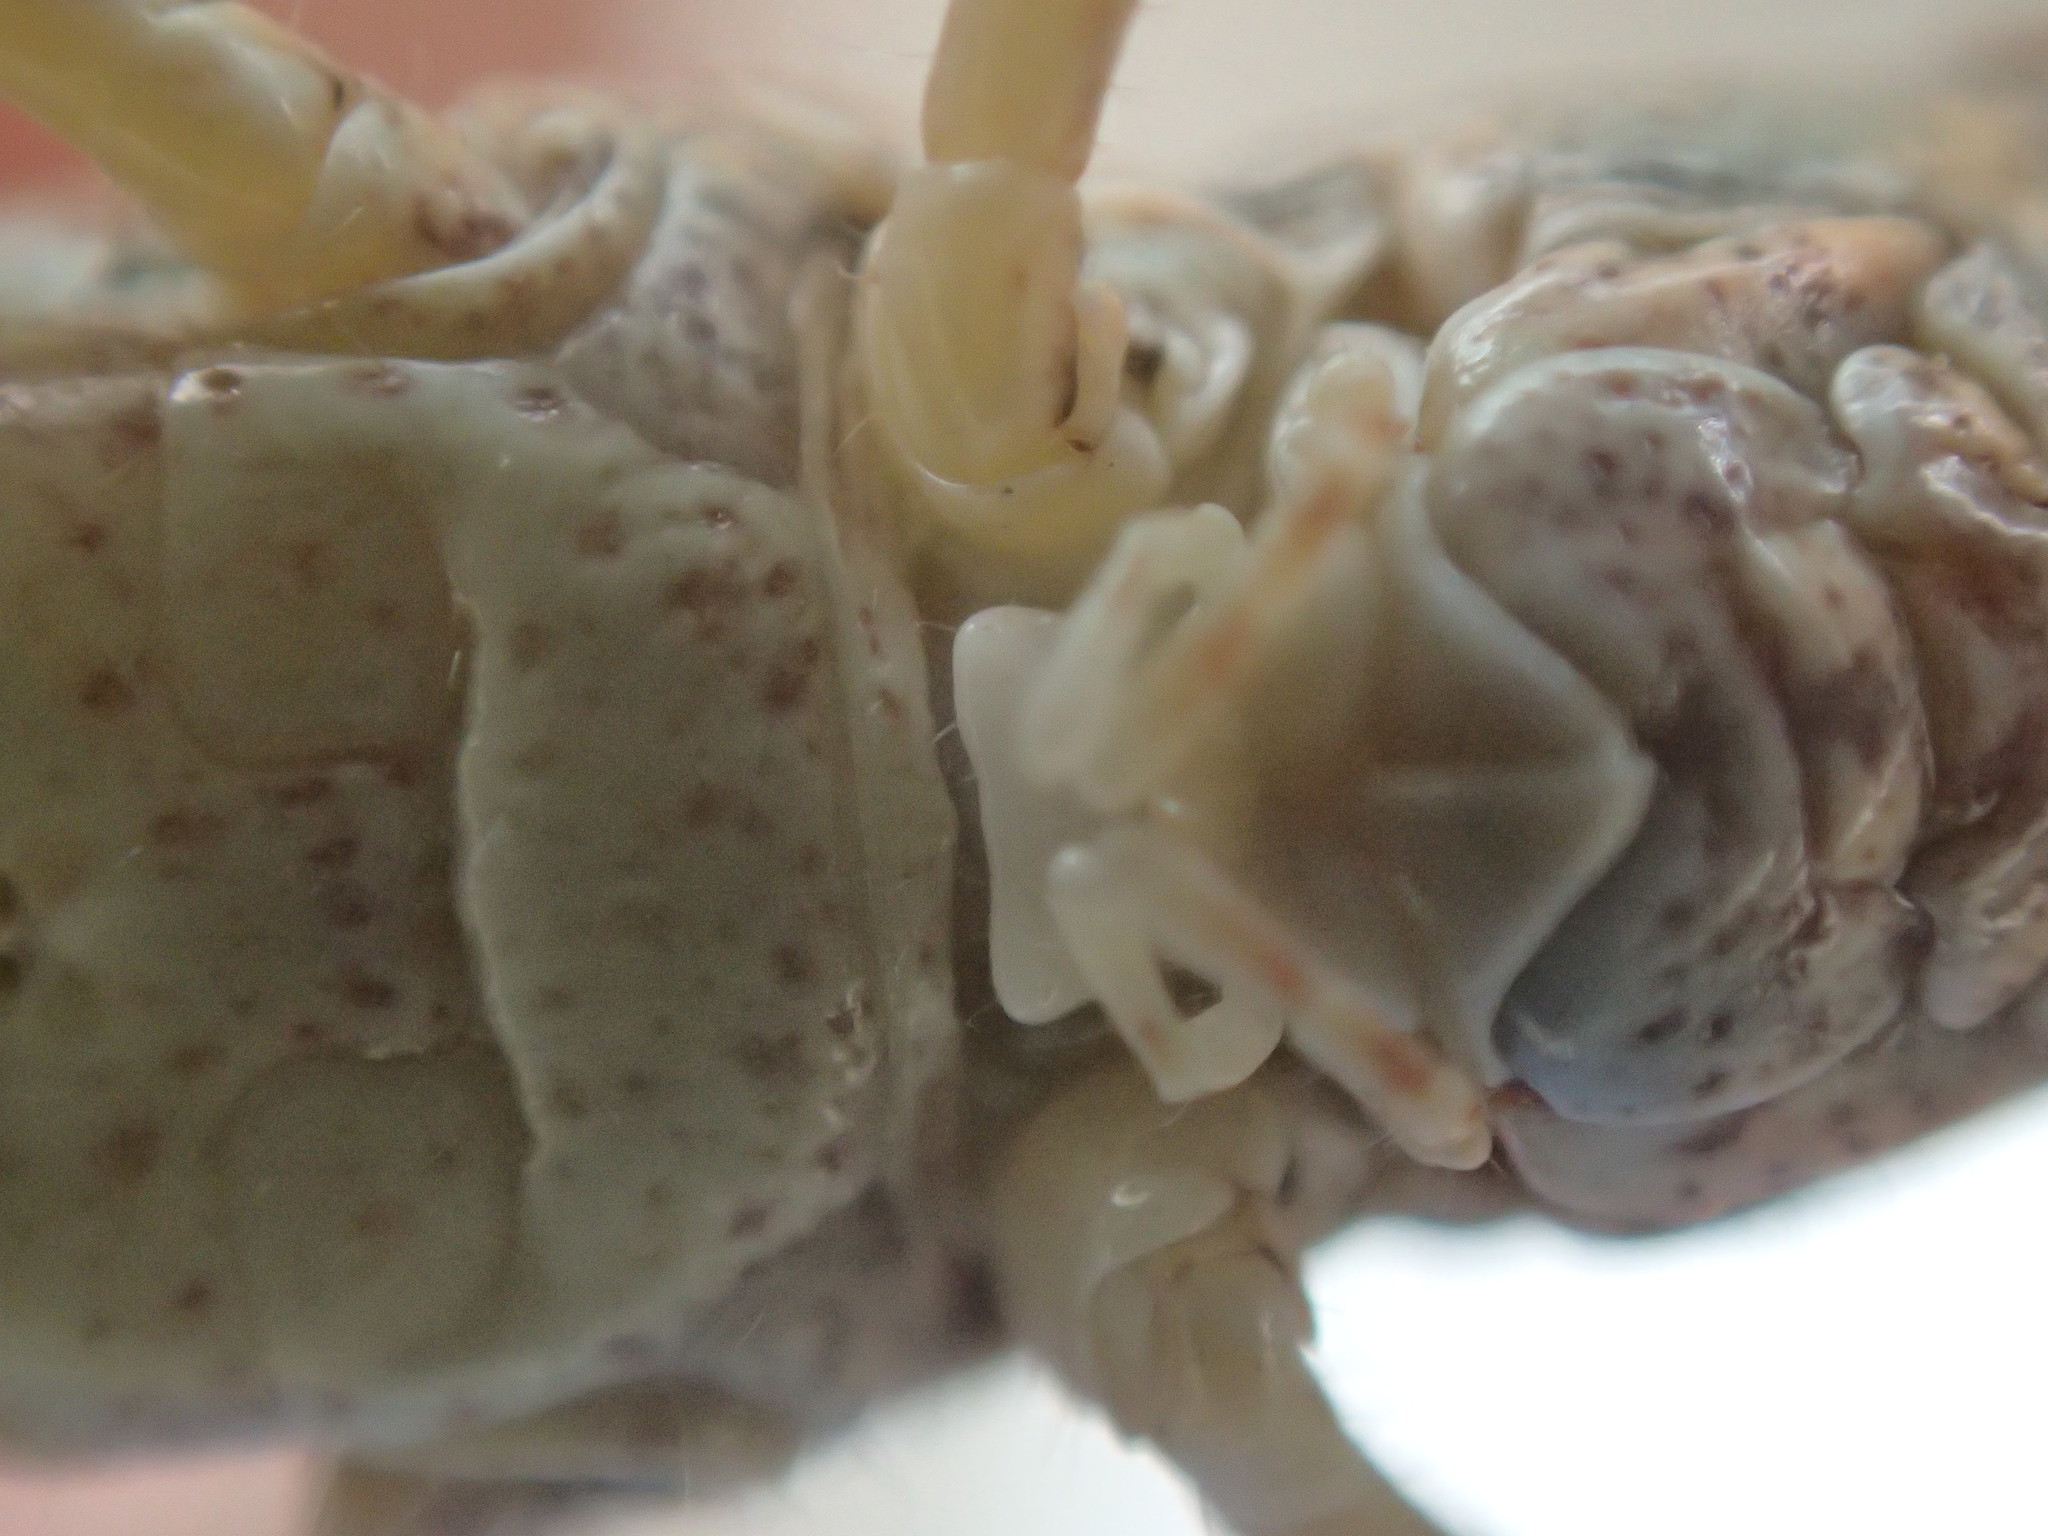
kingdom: Animalia
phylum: Arthropoda
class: Insecta
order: Orthoptera
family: Acrididae
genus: Azelota
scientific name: Azelota
